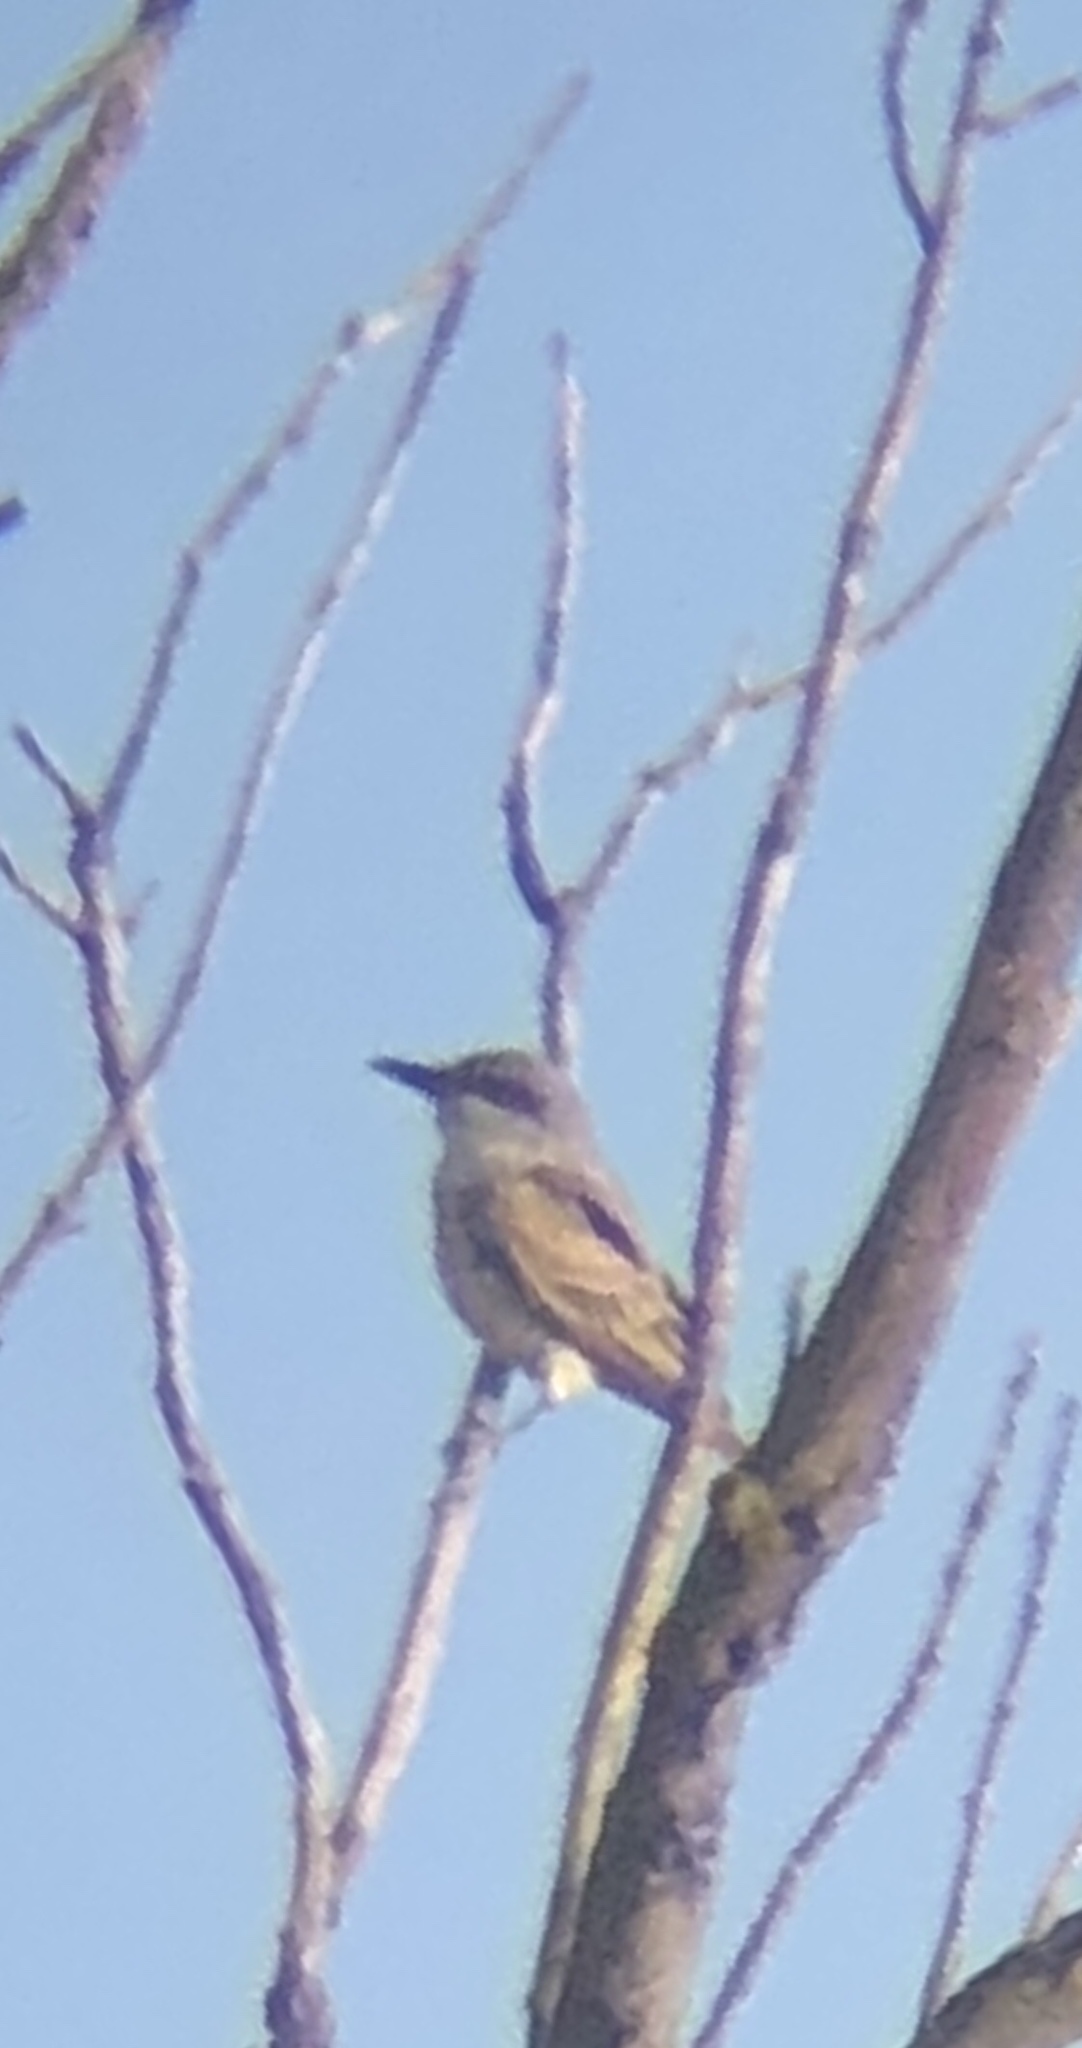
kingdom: Animalia
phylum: Chordata
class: Aves
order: Passeriformes
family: Tyrannidae
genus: Tyrannus
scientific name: Tyrannus dominicensis
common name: Gray kingbird
